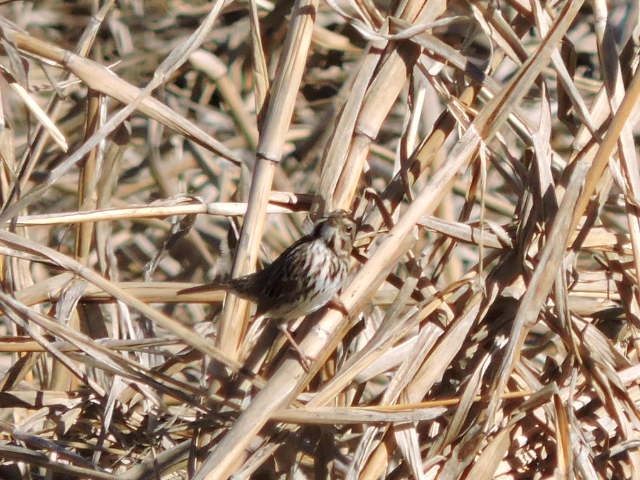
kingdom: Animalia
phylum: Chordata
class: Aves
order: Passeriformes
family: Passerellidae
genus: Melospiza
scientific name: Melospiza melodia
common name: Song sparrow
